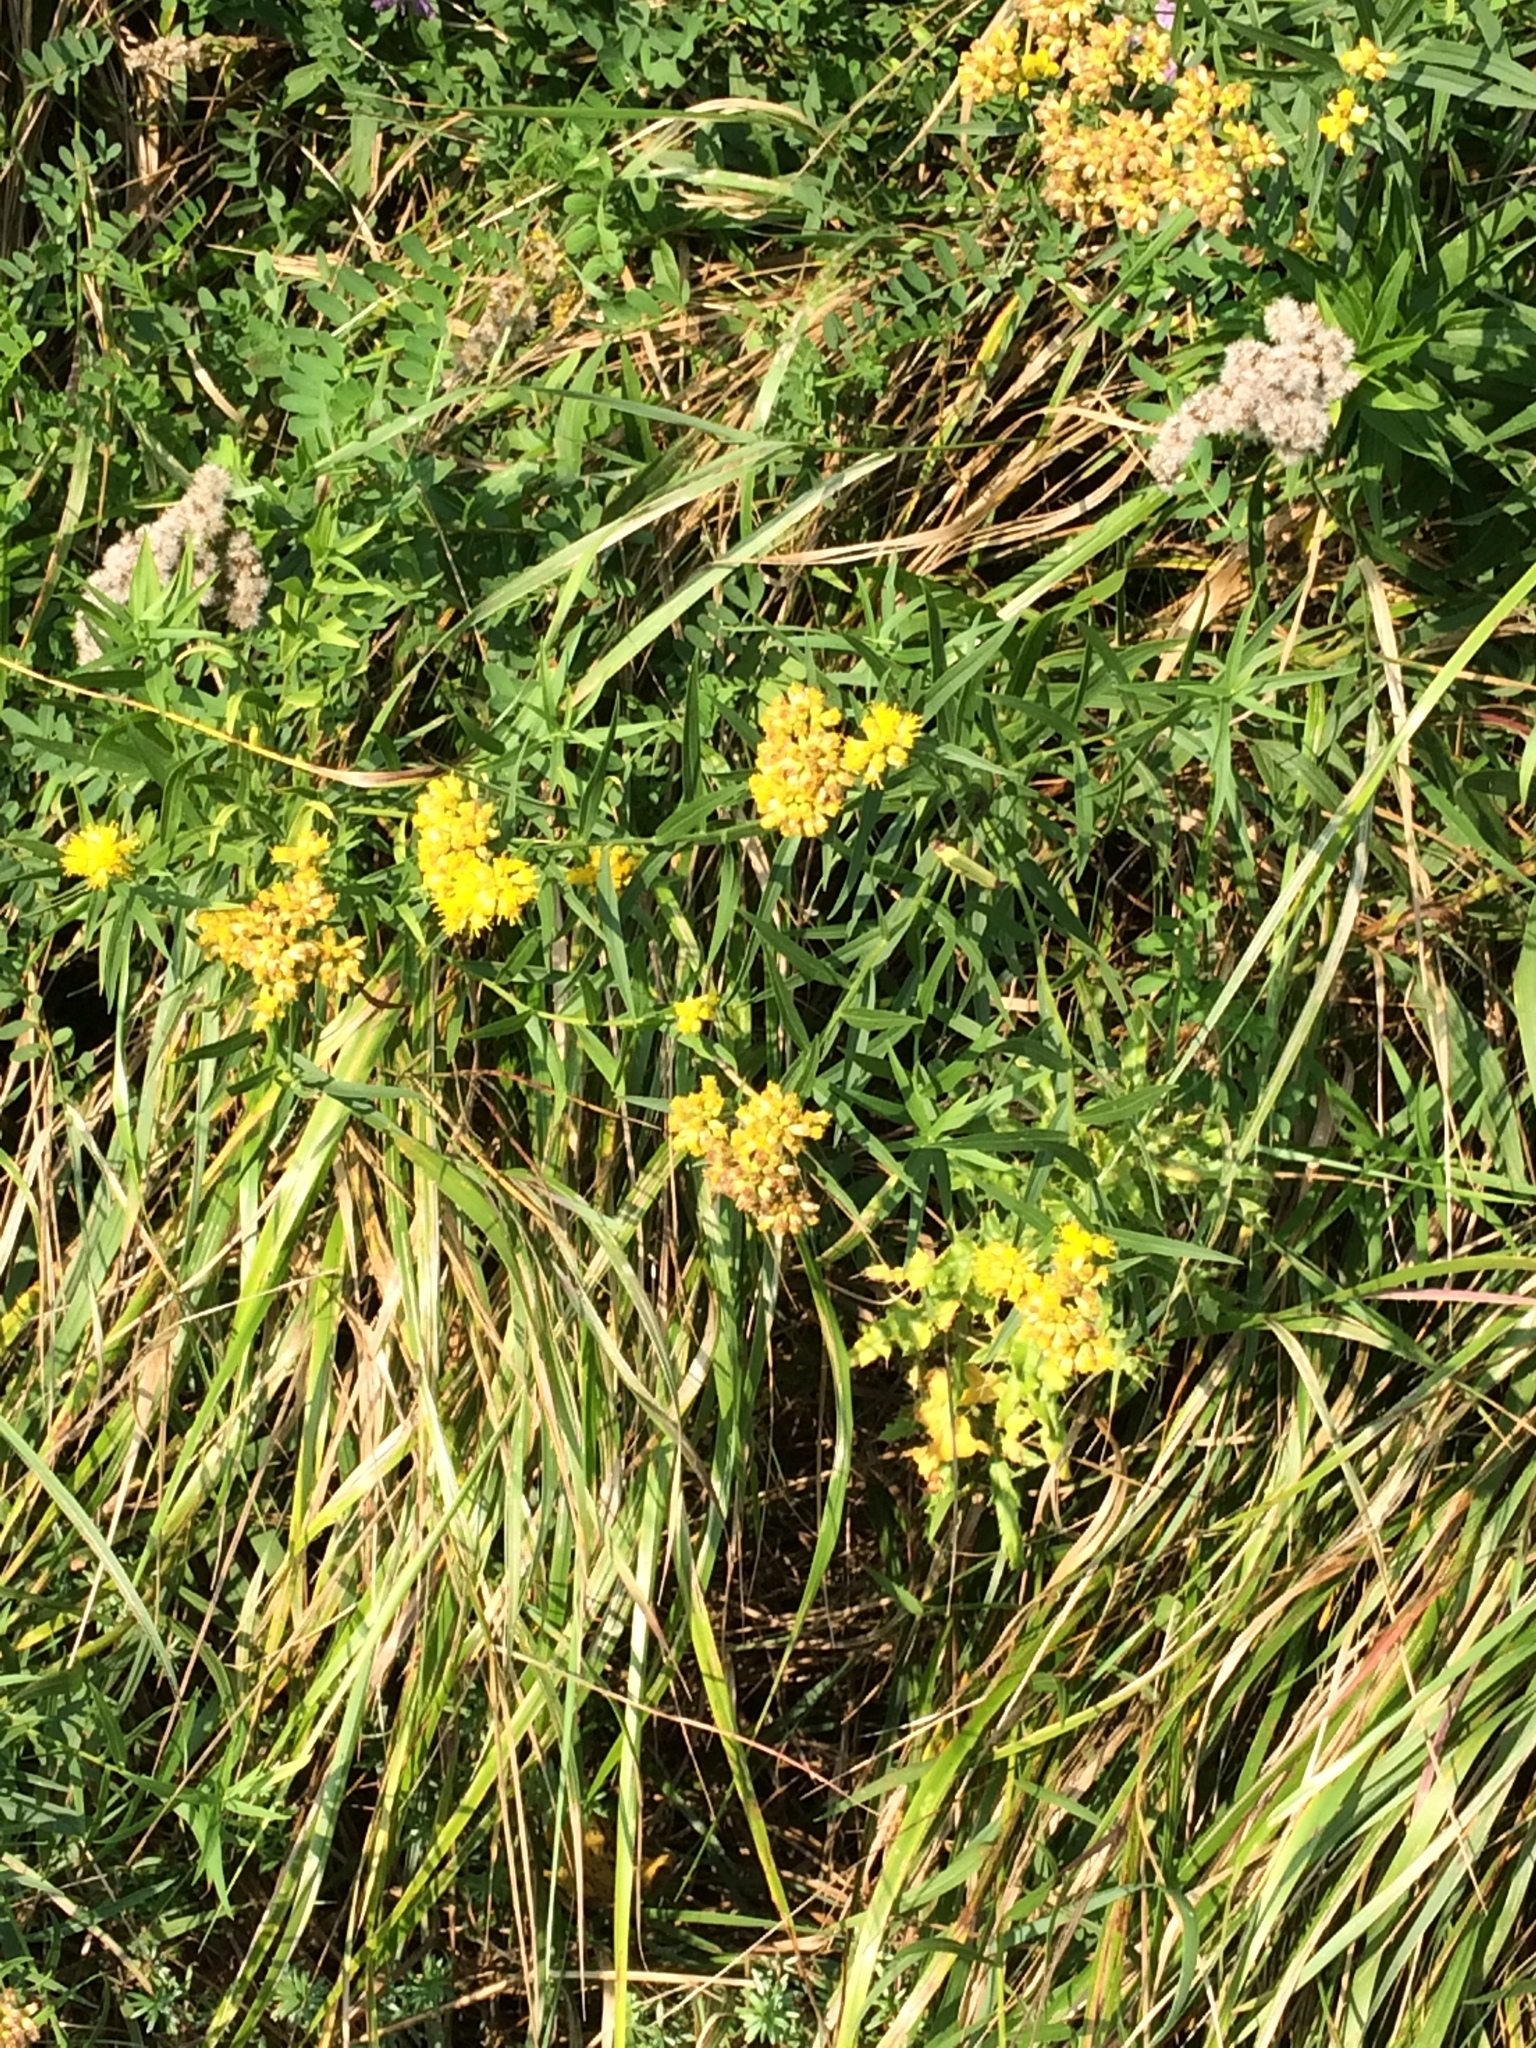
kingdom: Plantae
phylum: Tracheophyta
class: Magnoliopsida
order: Asterales
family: Asteraceae
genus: Euthamia
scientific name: Euthamia graminifolia
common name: Common goldentop
